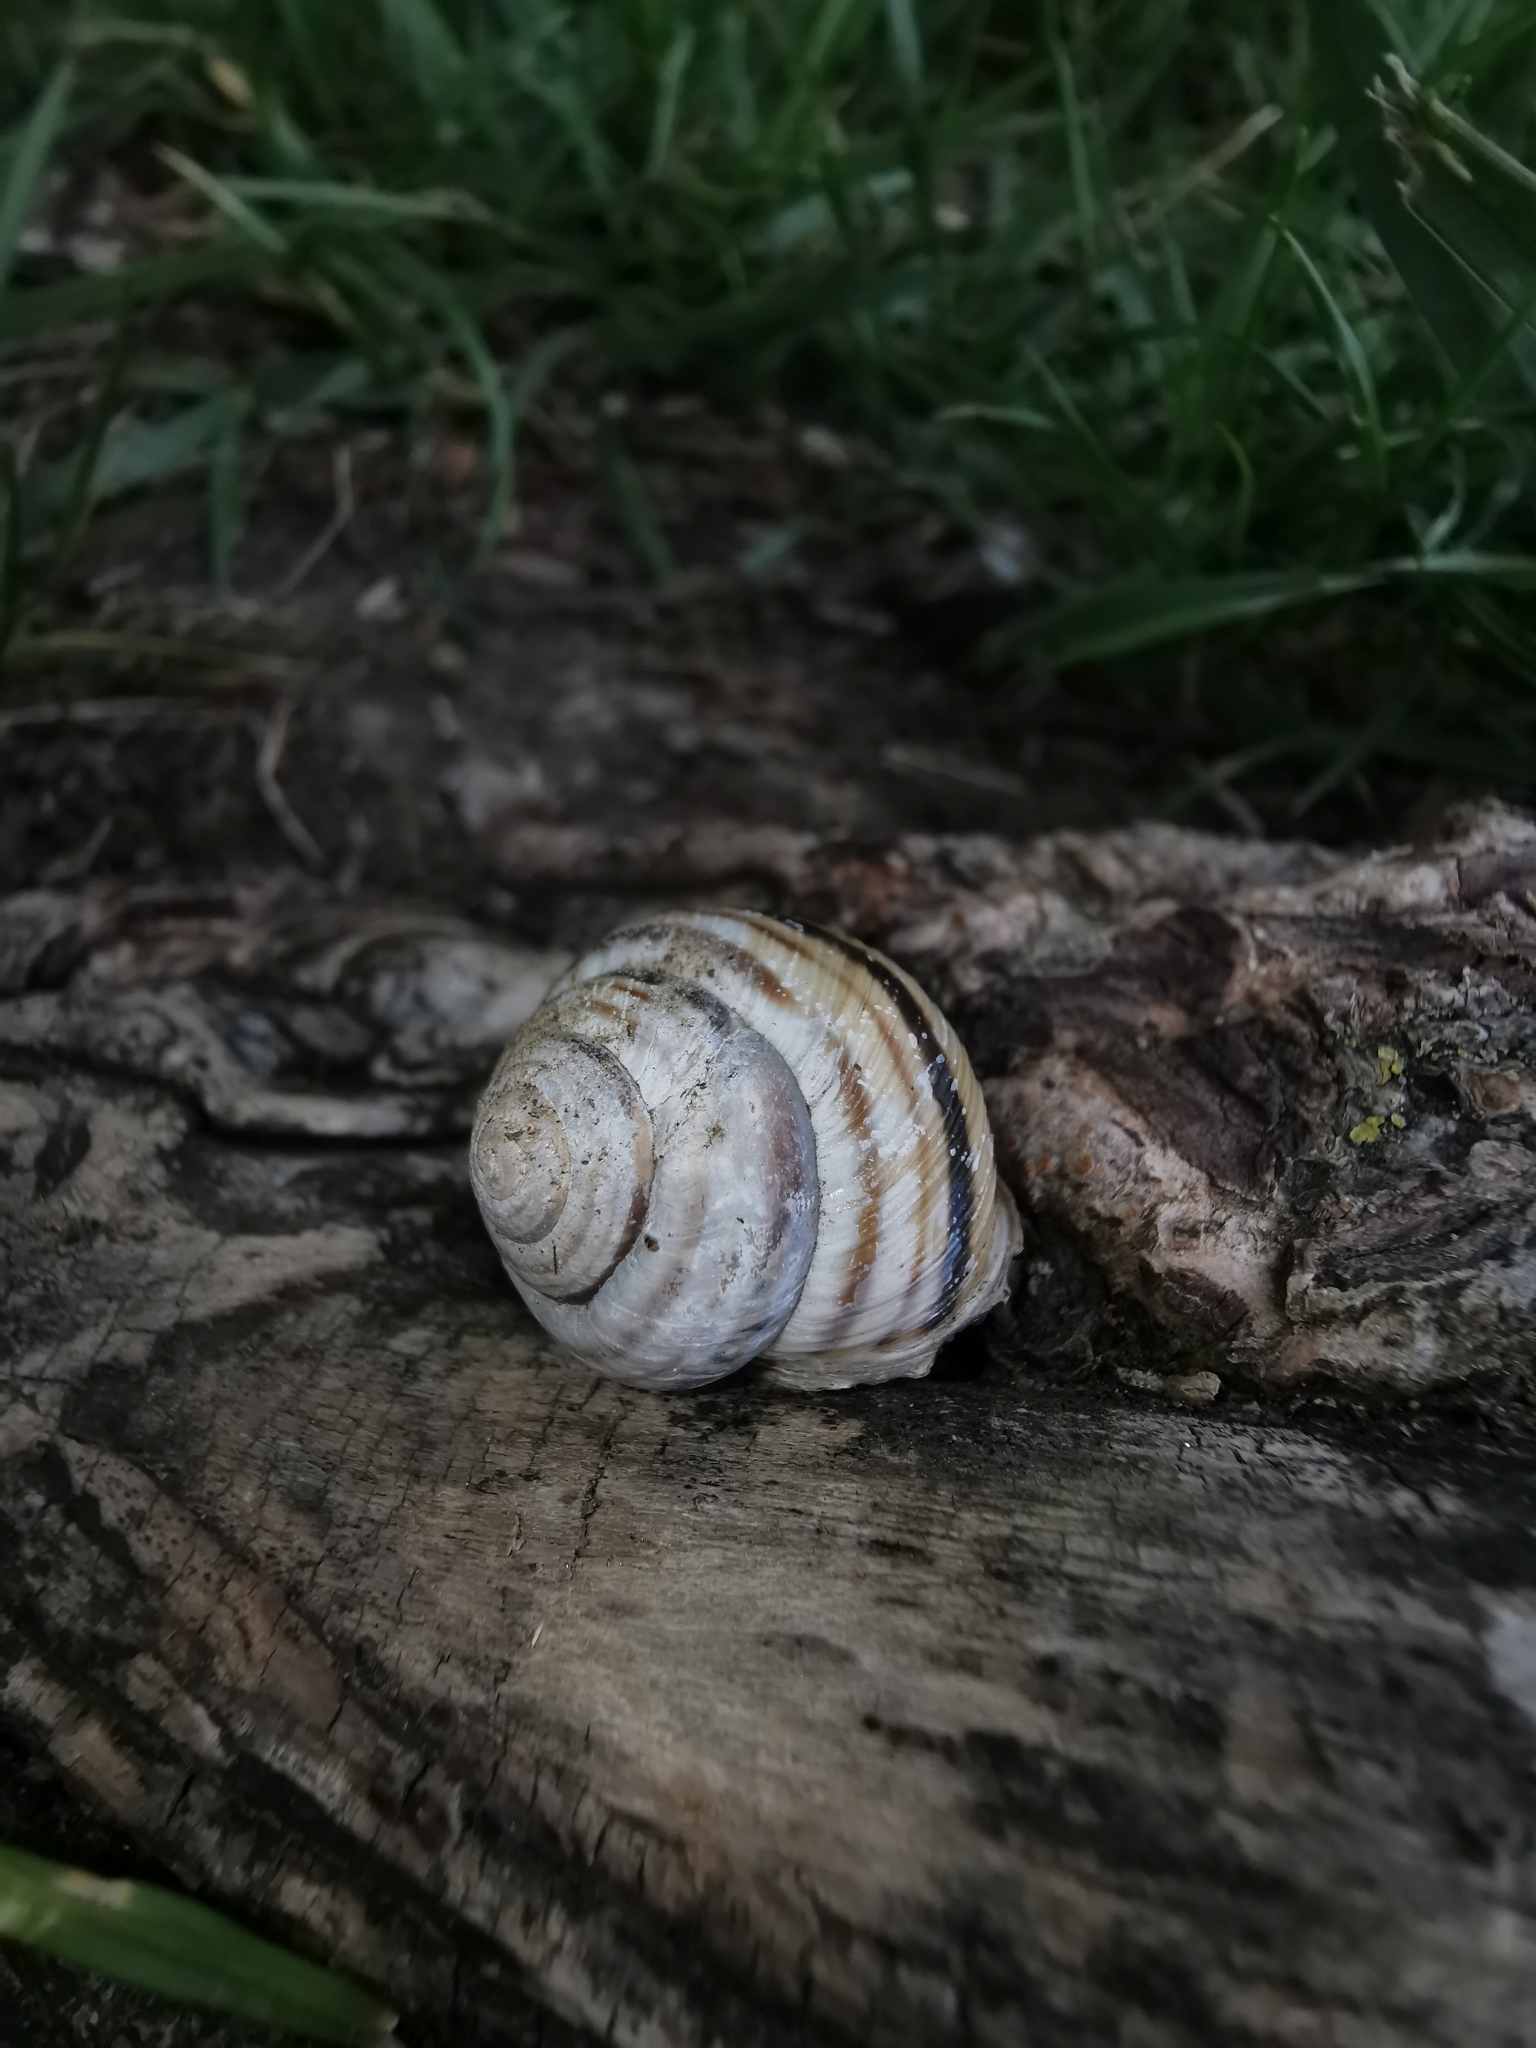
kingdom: Animalia
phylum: Mollusca
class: Gastropoda
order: Stylommatophora
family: Helicidae
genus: Caucasotachea
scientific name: Caucasotachea vindobonensis
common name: European helicid land snail
